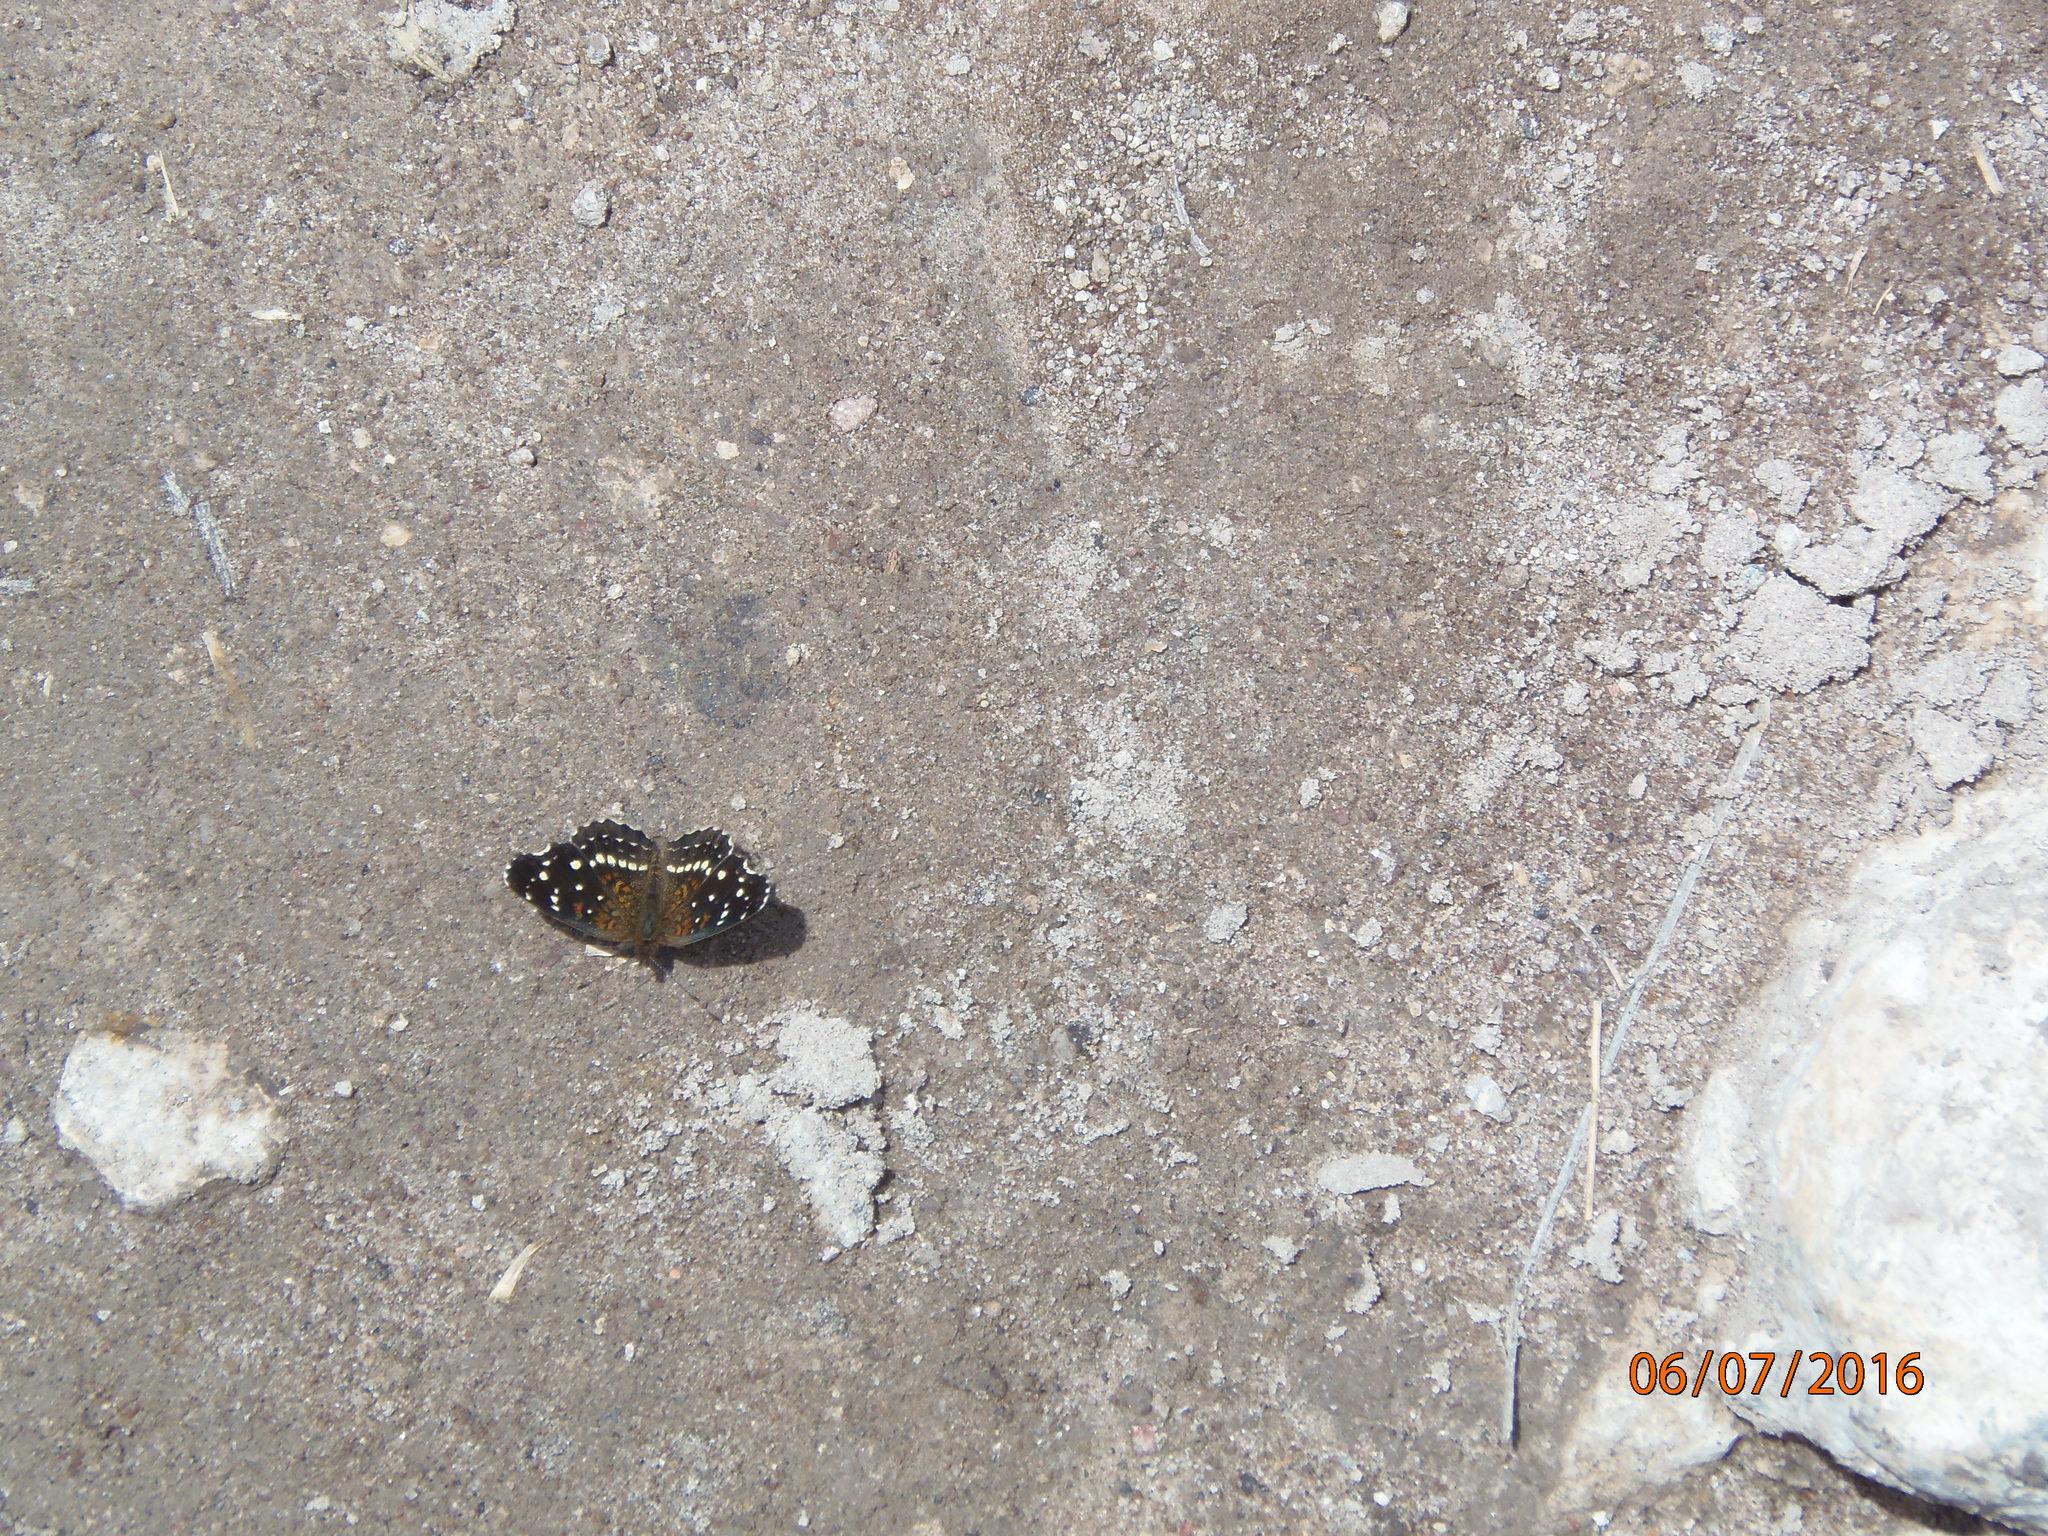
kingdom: Animalia
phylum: Arthropoda
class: Insecta
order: Lepidoptera
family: Nymphalidae
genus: Anthanassa
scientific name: Anthanassa texana
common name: Texan crescent
